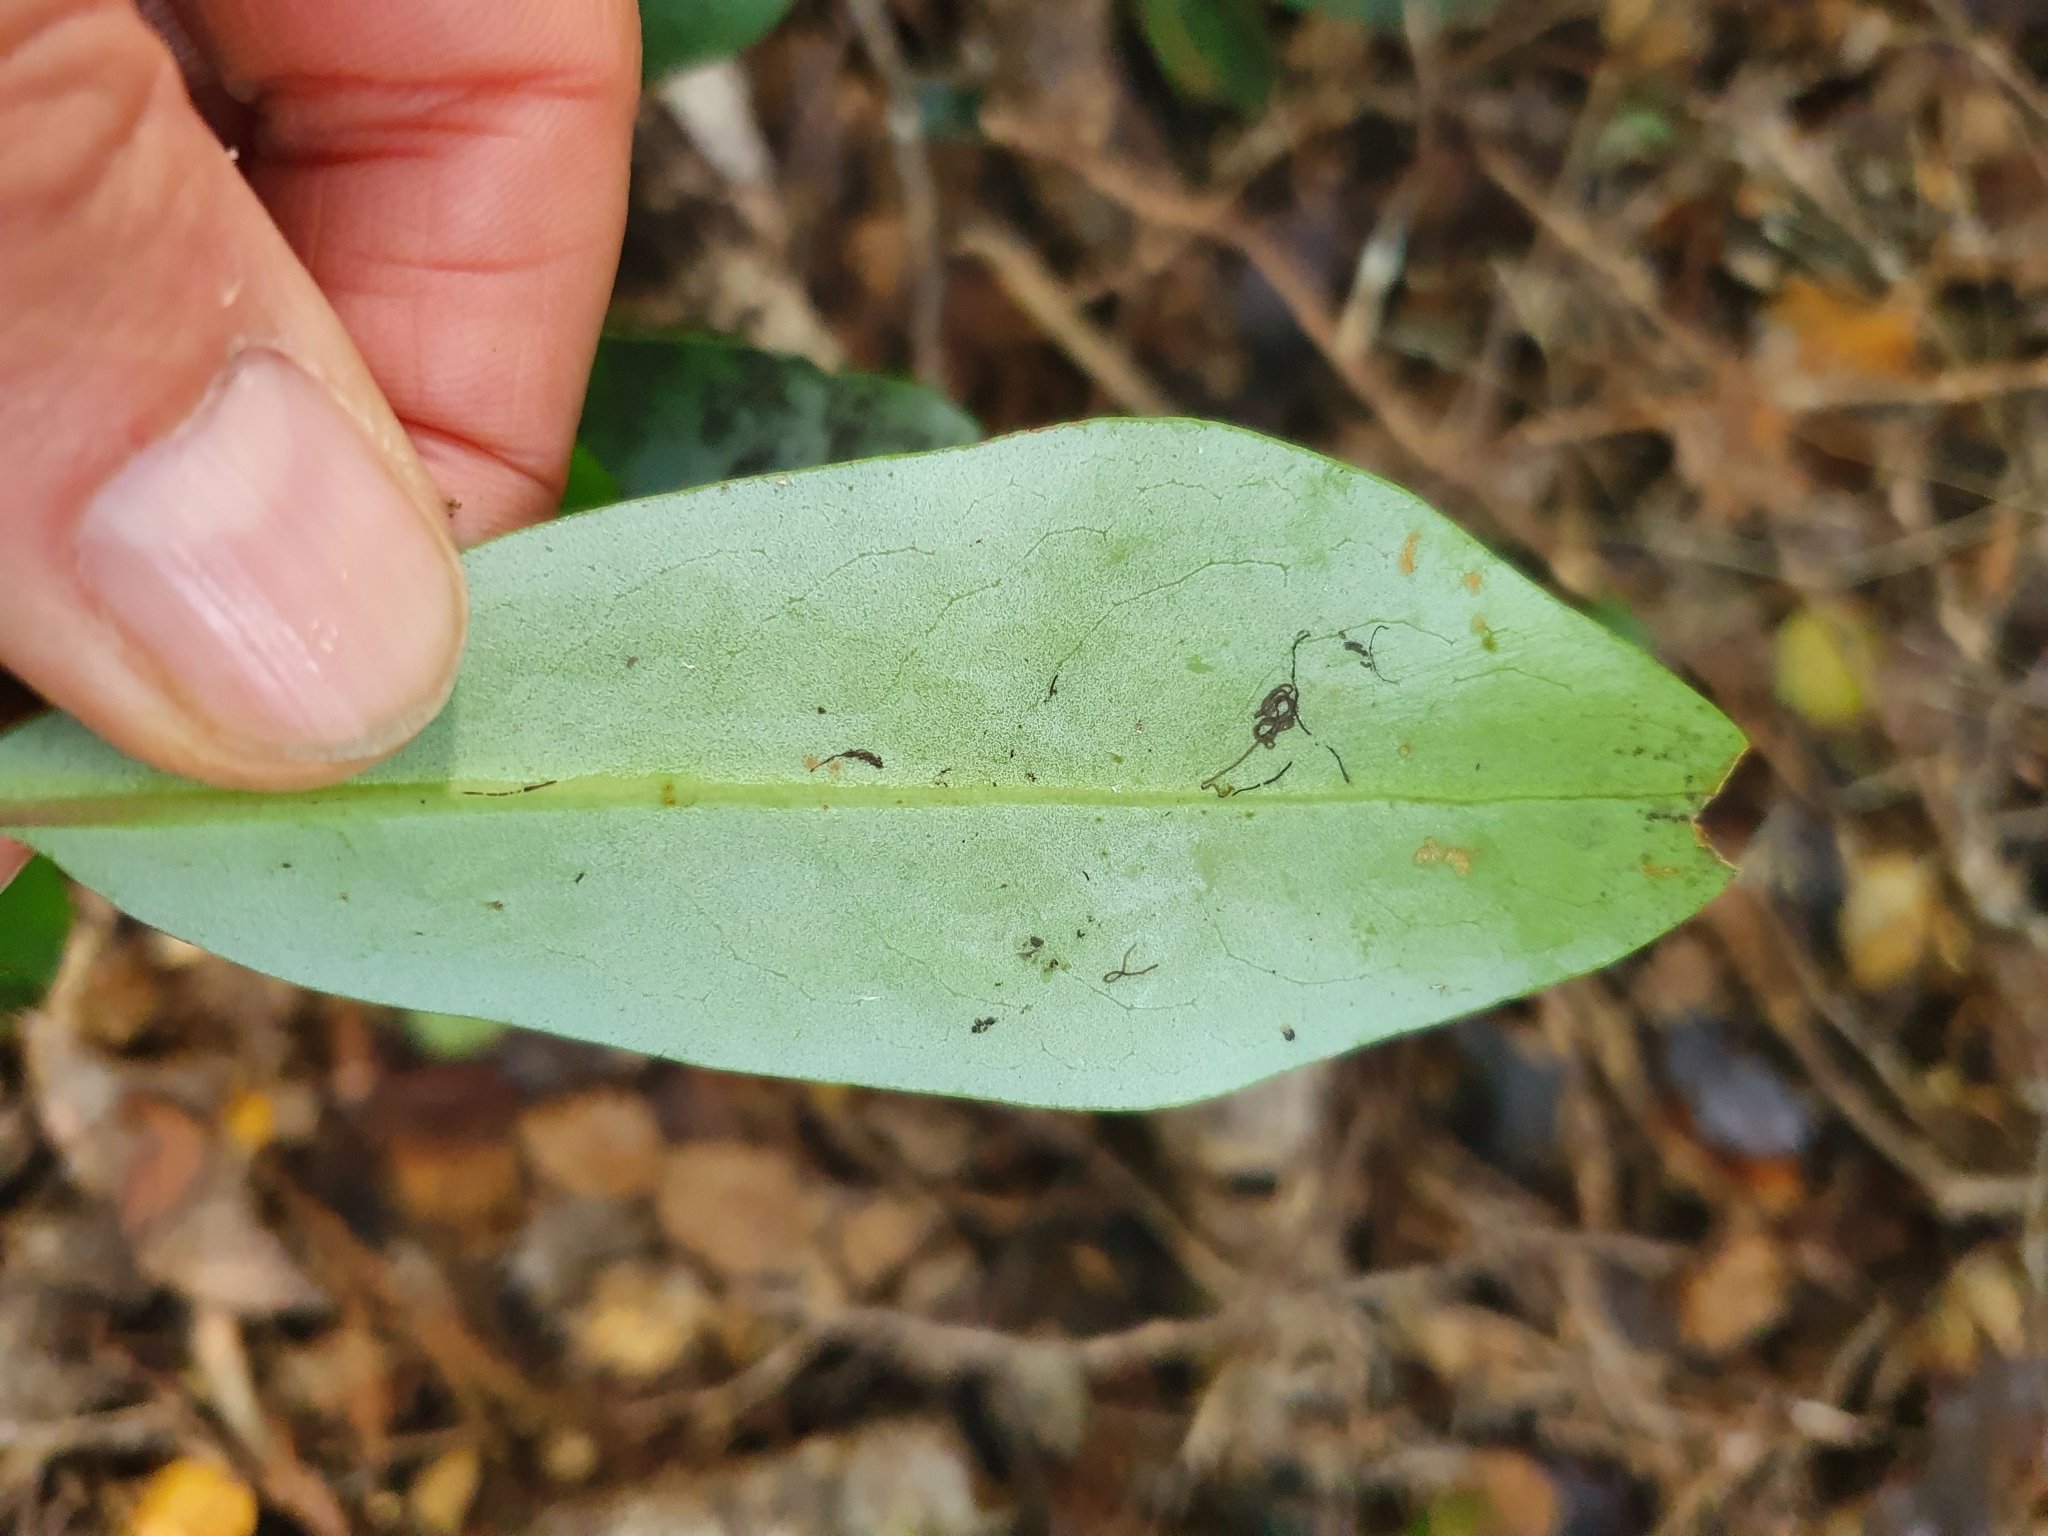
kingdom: Plantae
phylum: Tracheophyta
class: Magnoliopsida
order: Canellales
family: Winteraceae
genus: Pseudowintera
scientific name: Pseudowintera axillaris
